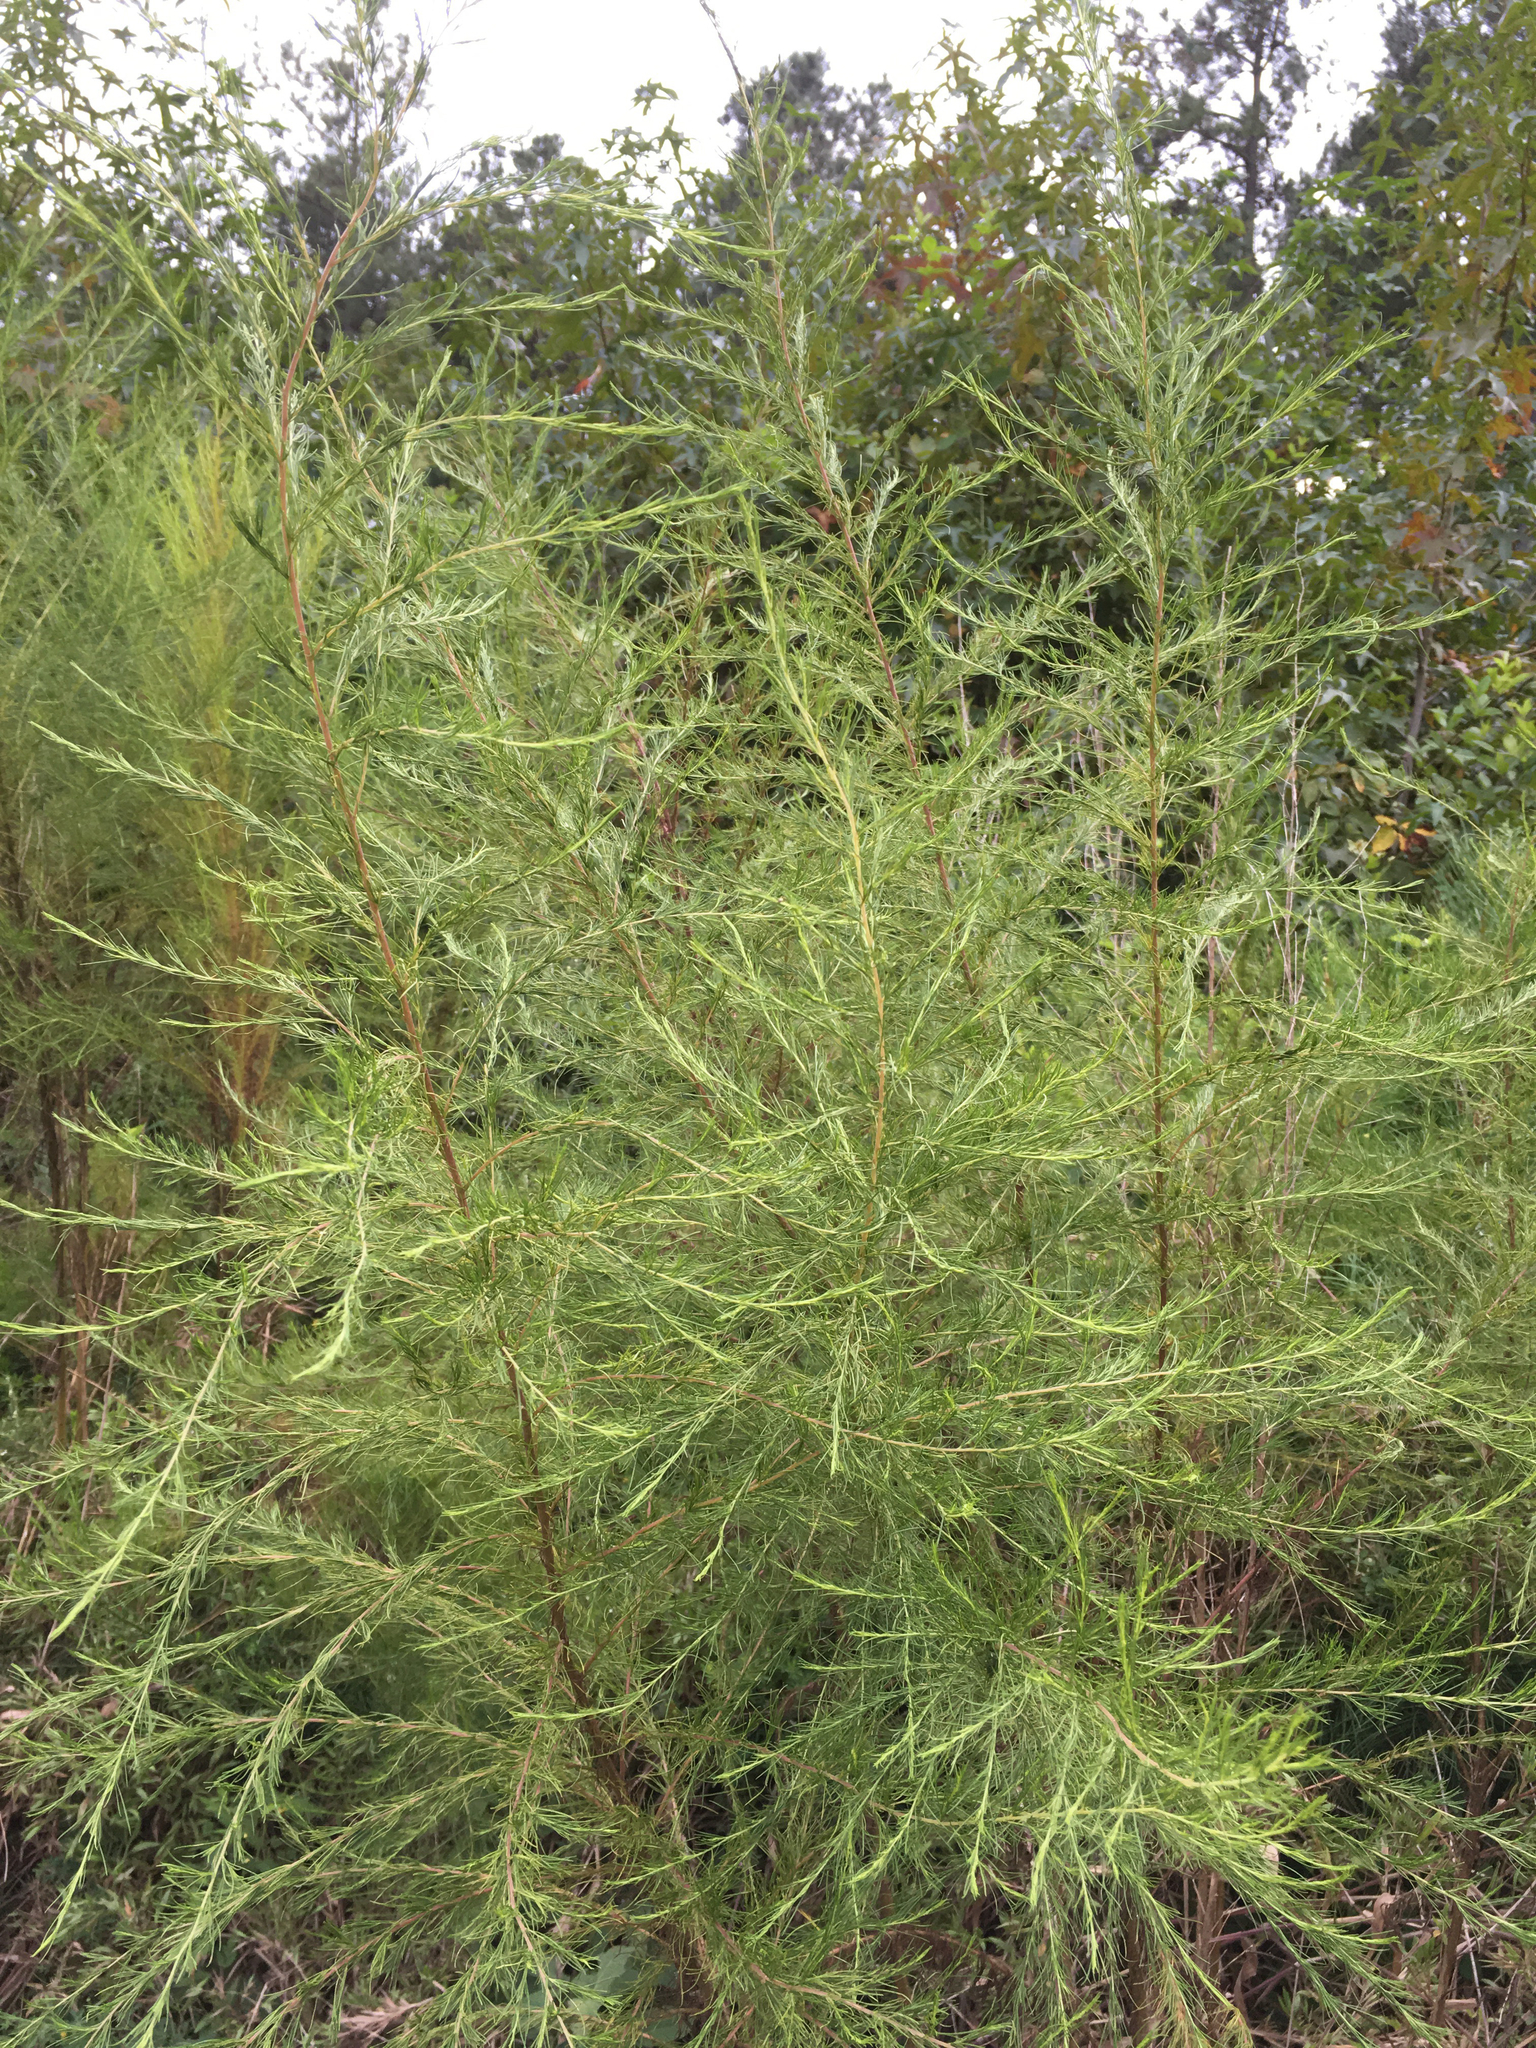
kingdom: Plantae
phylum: Tracheophyta
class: Magnoliopsida
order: Asterales
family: Asteraceae
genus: Eupatorium
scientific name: Eupatorium capillifolium
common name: Dog-fennel
